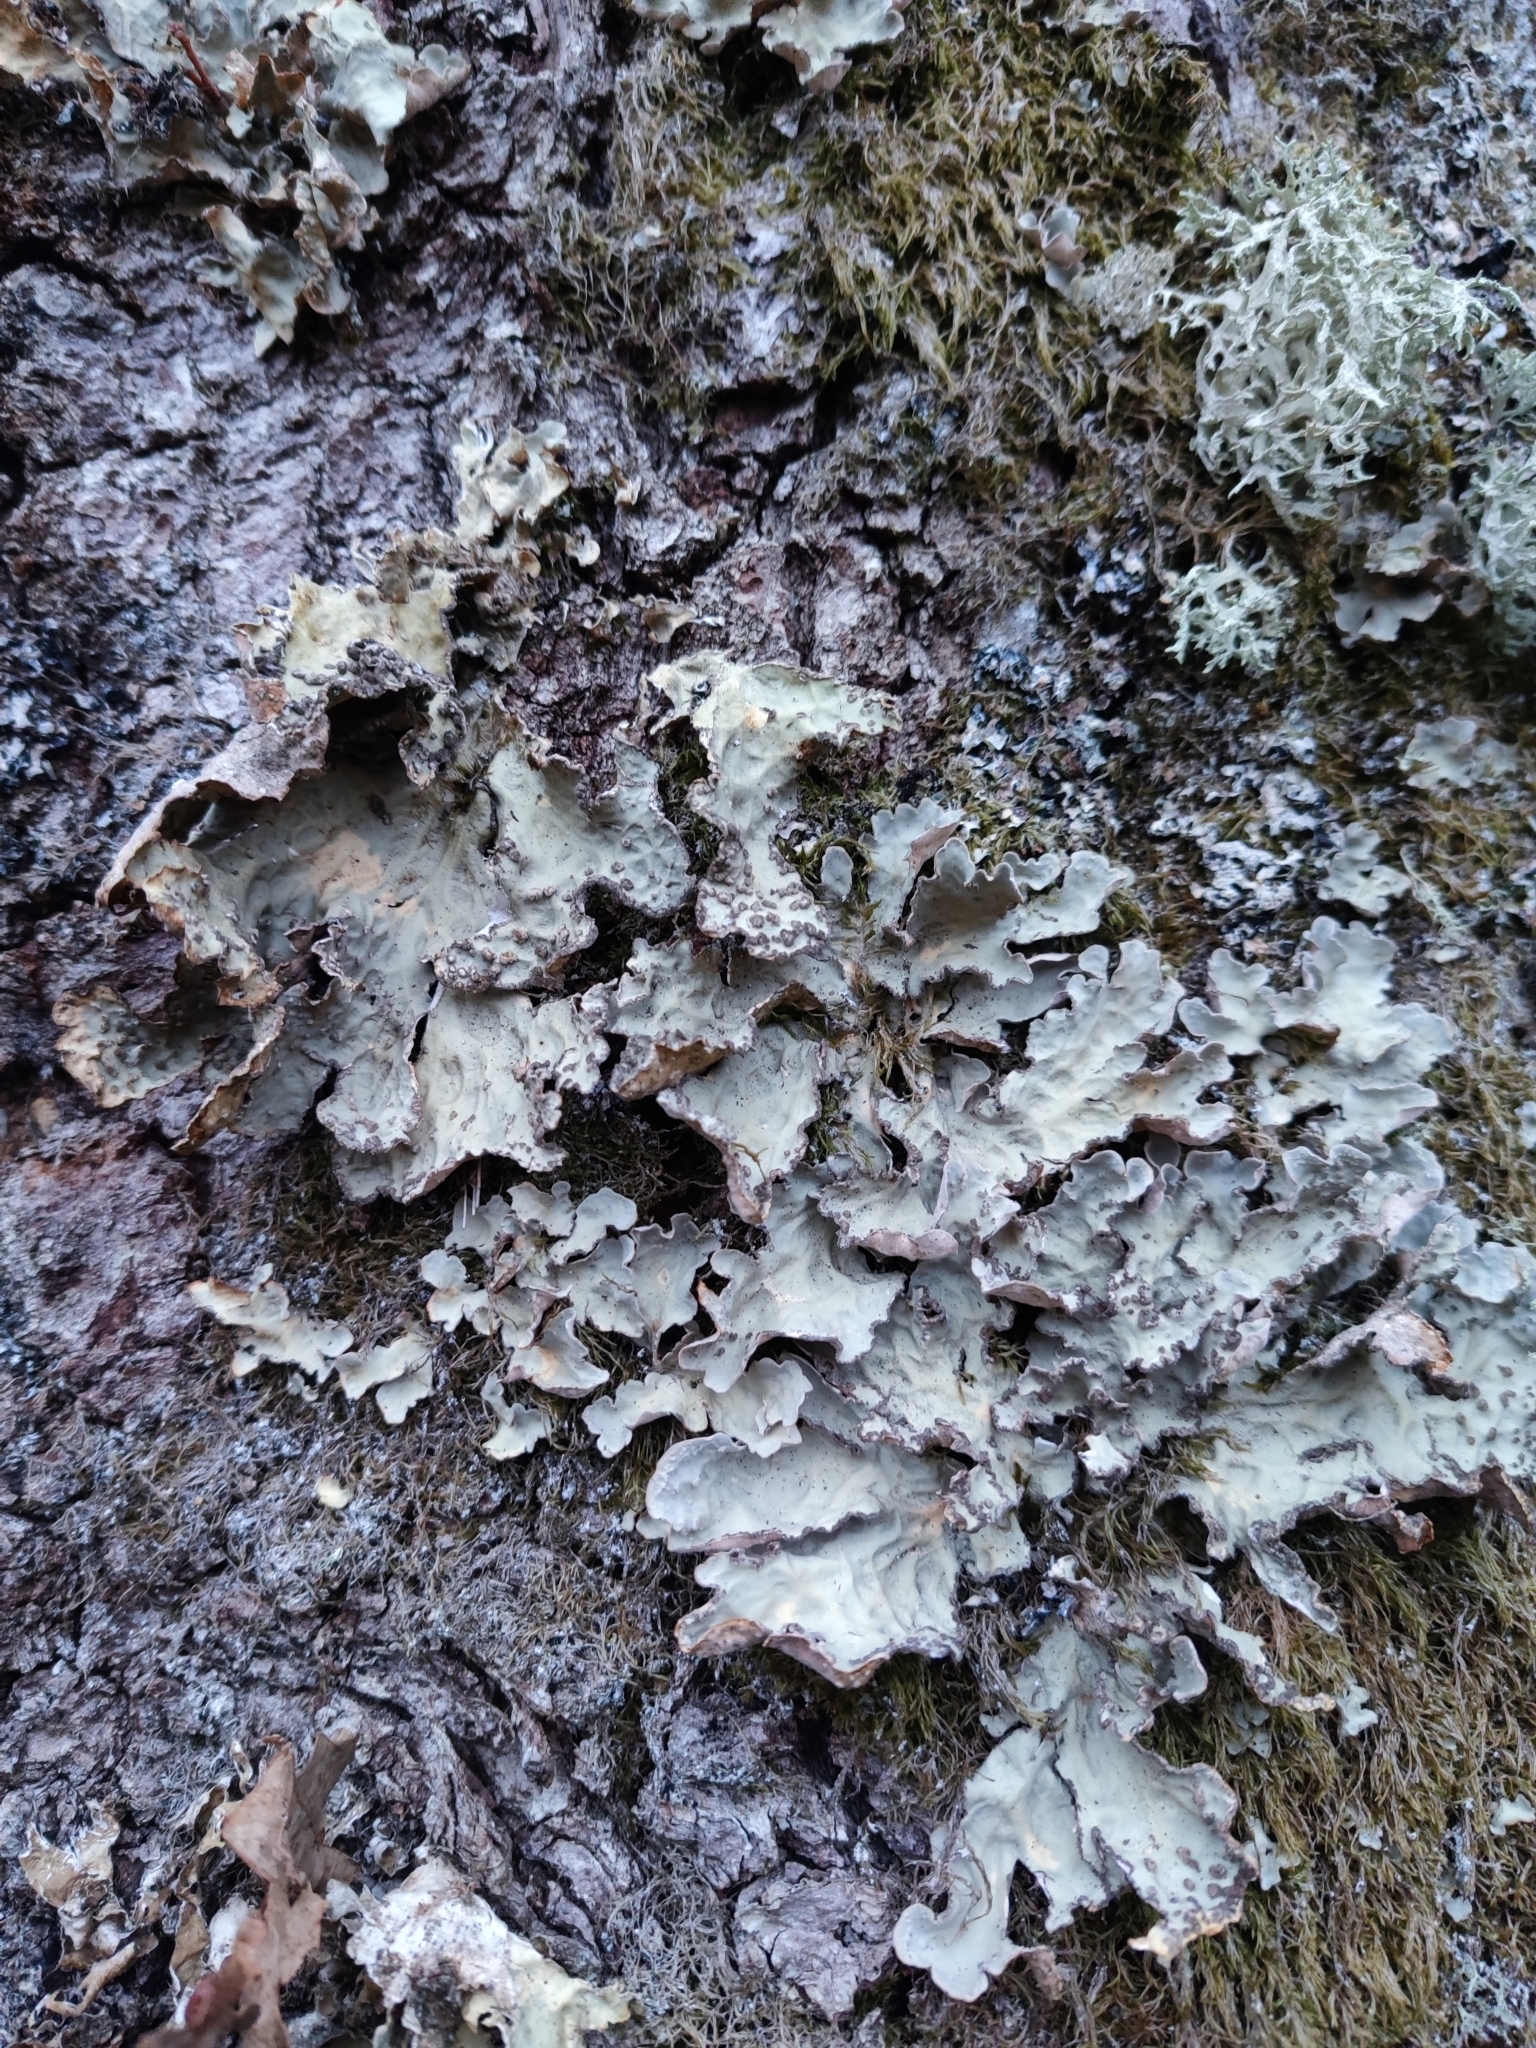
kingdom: Fungi
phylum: Ascomycota
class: Lecanoromycetes
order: Peltigerales
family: Lobariaceae
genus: Lobarina
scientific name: Lobarina scrobiculata
